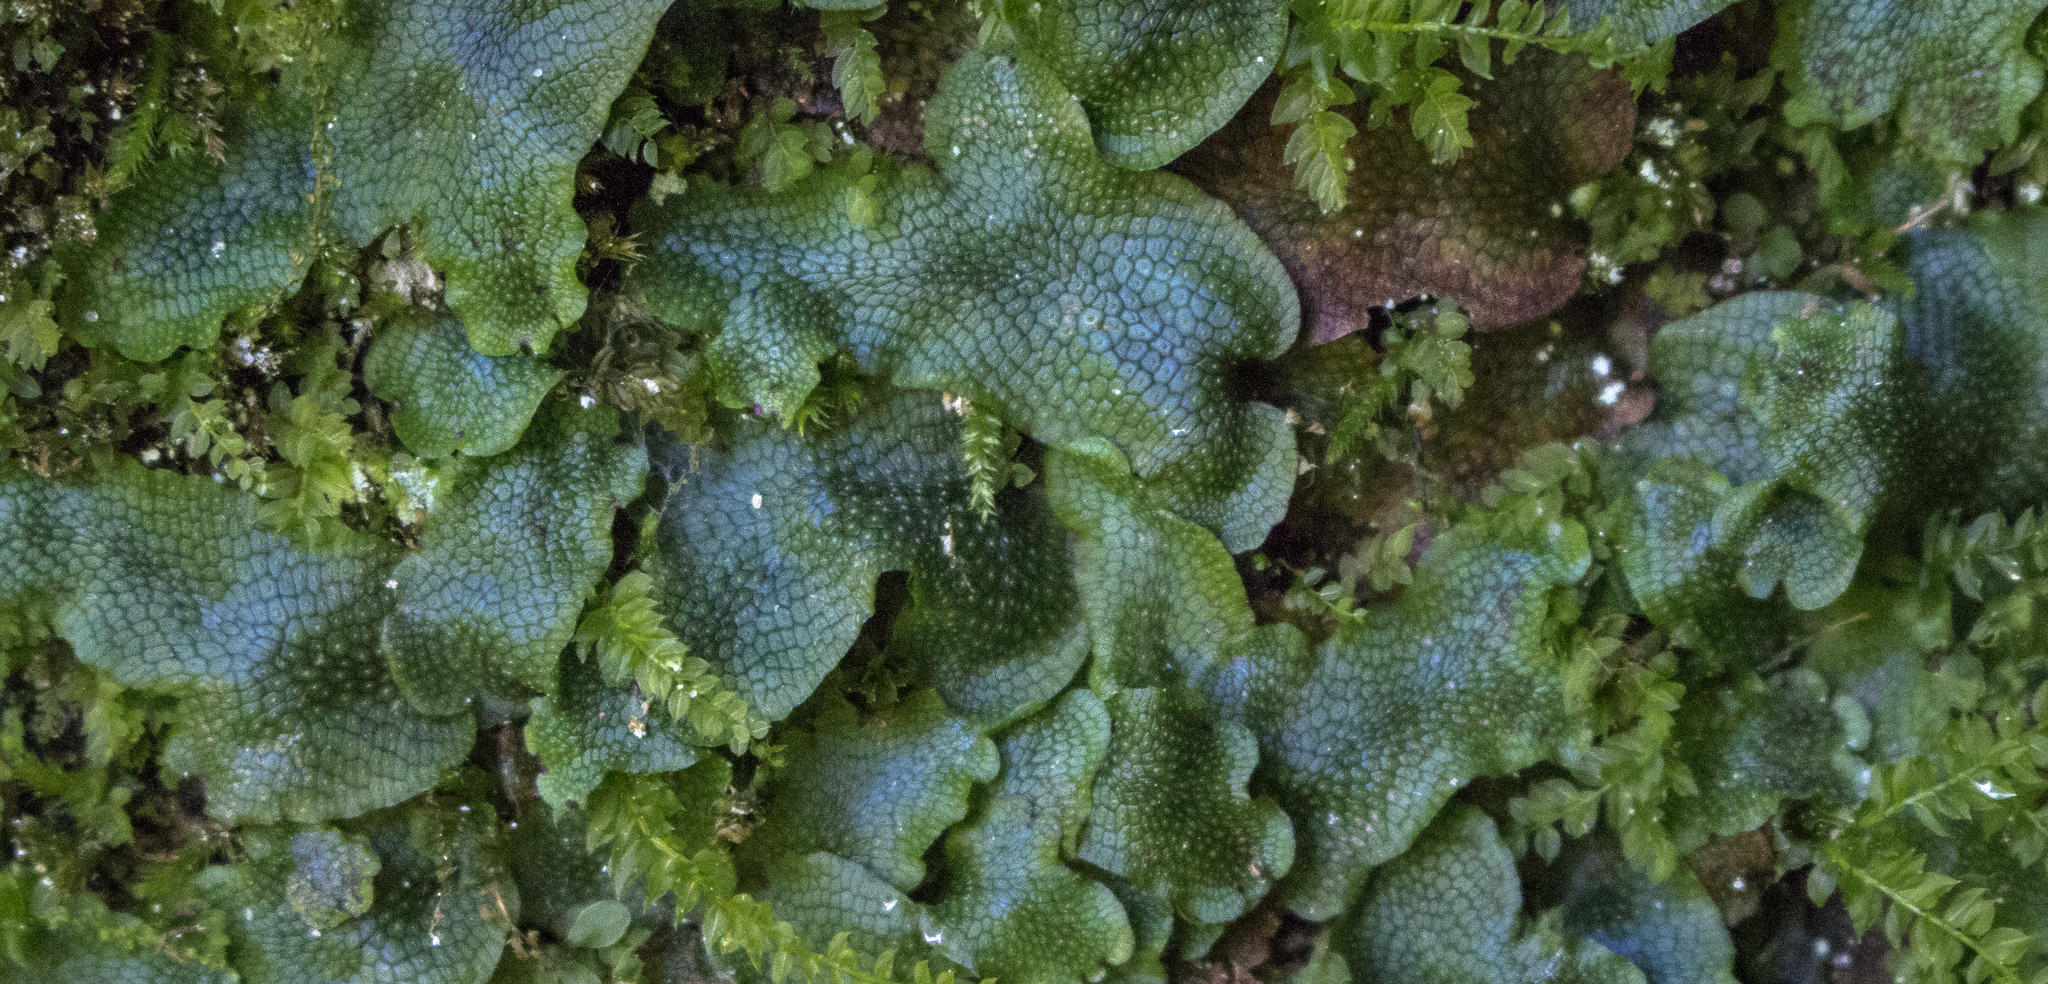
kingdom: Plantae
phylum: Marchantiophyta
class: Marchantiopsida
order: Marchantiales
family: Conocephalaceae
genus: Conocephalum
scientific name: Conocephalum salebrosum
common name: Cat-tongue liverwort
